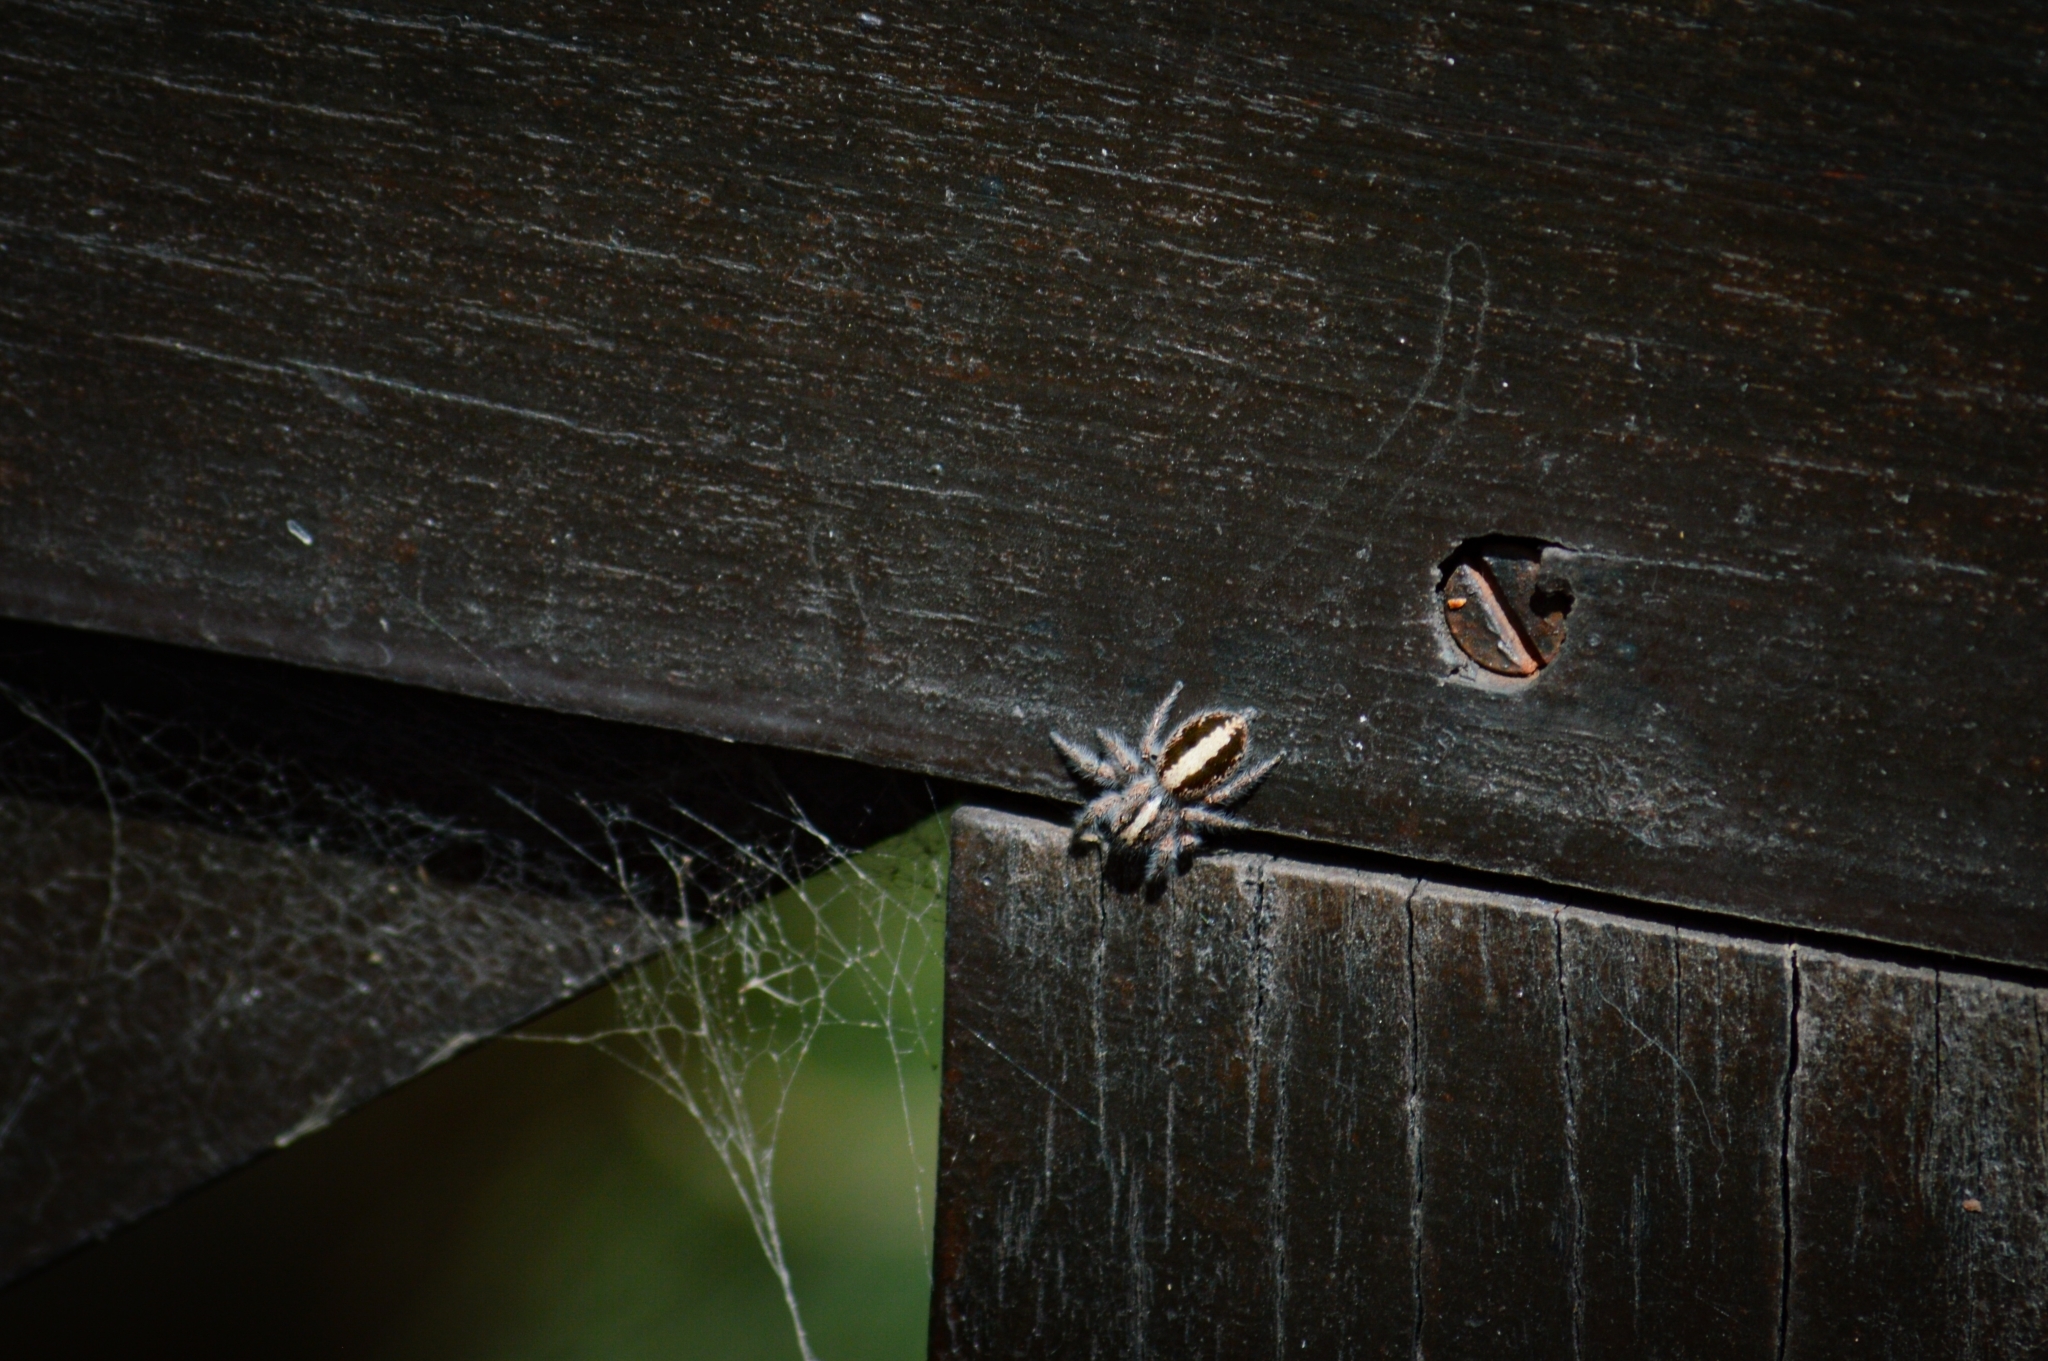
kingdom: Animalia
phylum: Arthropoda
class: Arachnida
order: Araneae
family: Salticidae
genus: Megafreya
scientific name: Megafreya sutrix
